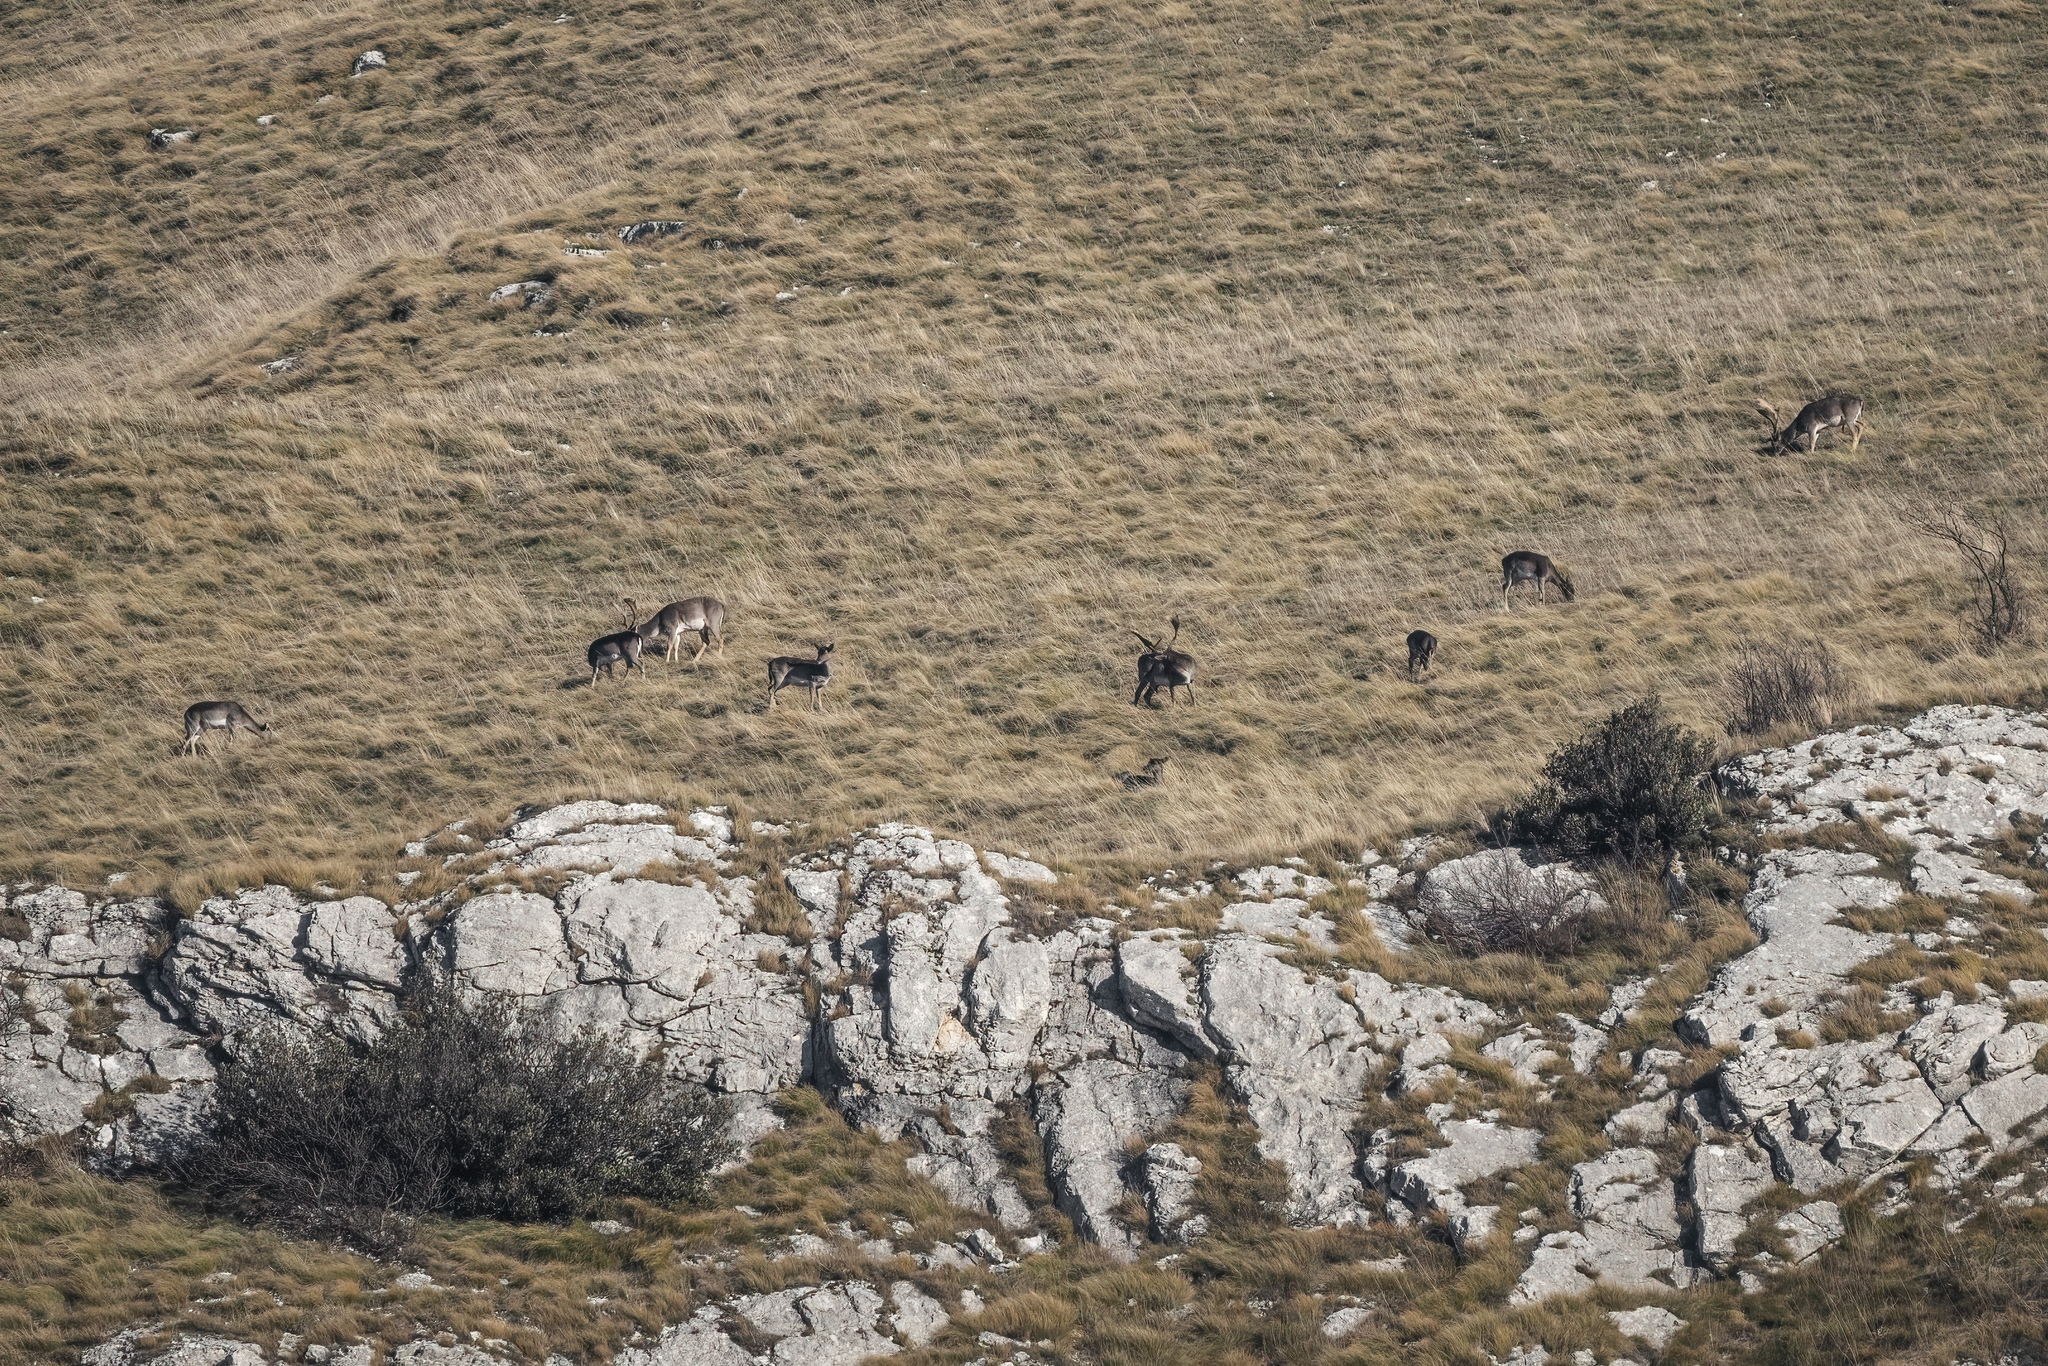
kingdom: Animalia
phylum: Chordata
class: Mammalia
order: Artiodactyla
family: Cervidae
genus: Dama
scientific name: Dama dama
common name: Fallow deer
